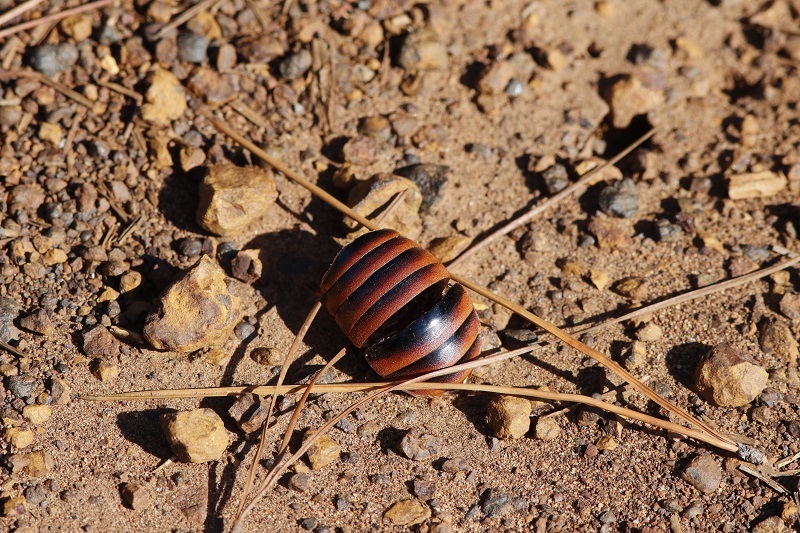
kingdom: Animalia
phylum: Arthropoda
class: Insecta
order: Blattodea
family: Blaberidae
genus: Aptera
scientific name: Aptera fusca
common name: Cape mountain cockroach
